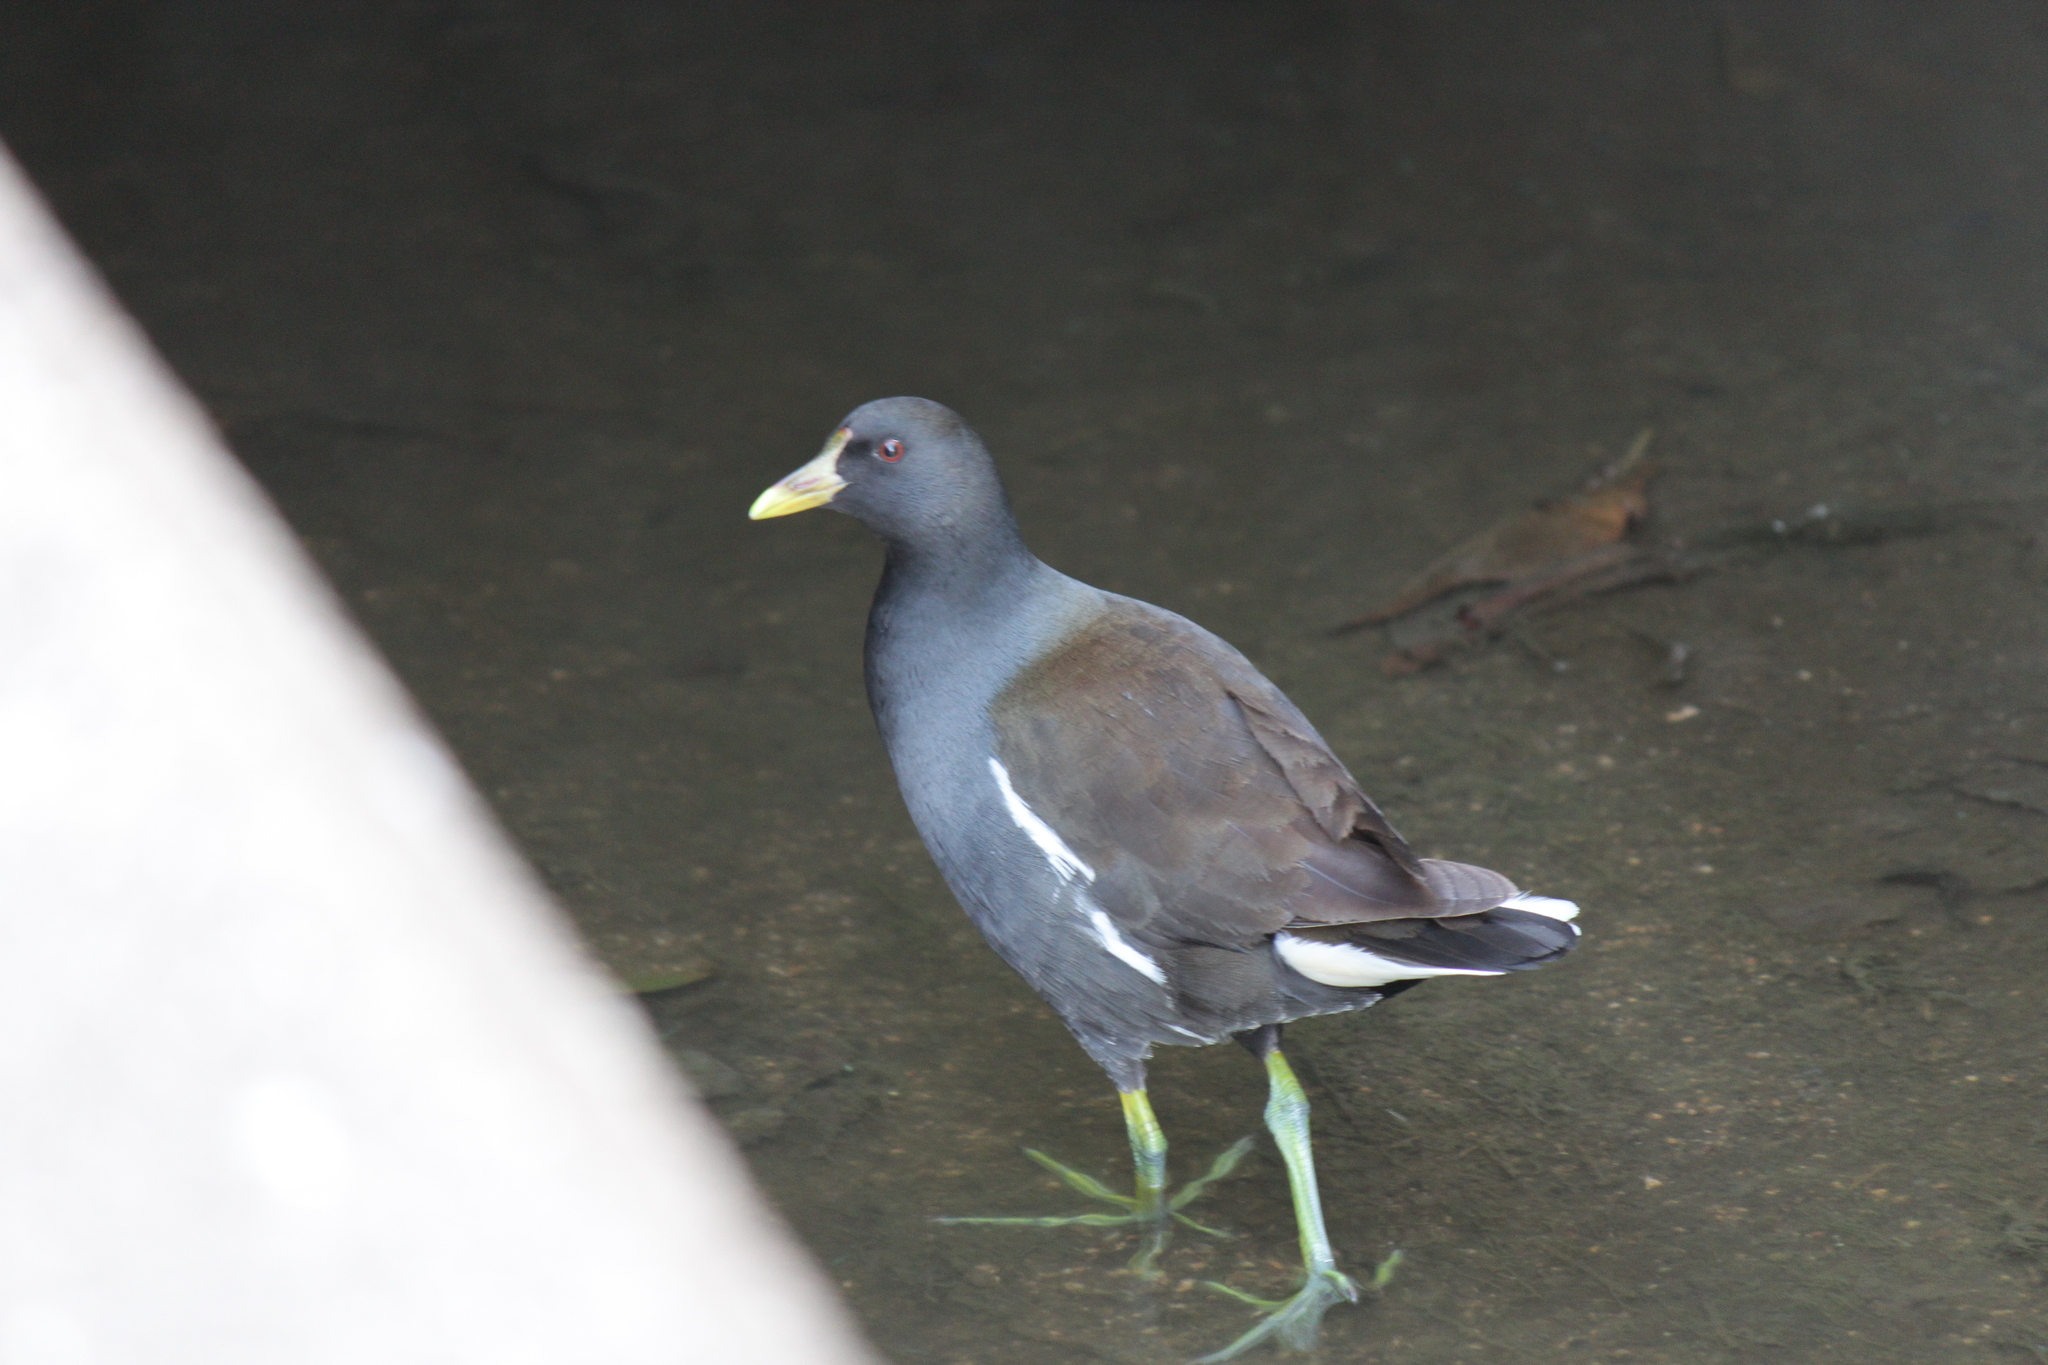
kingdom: Animalia
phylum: Chordata
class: Aves
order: Gruiformes
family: Rallidae
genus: Gallinula
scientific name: Gallinula chloropus
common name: Common moorhen
